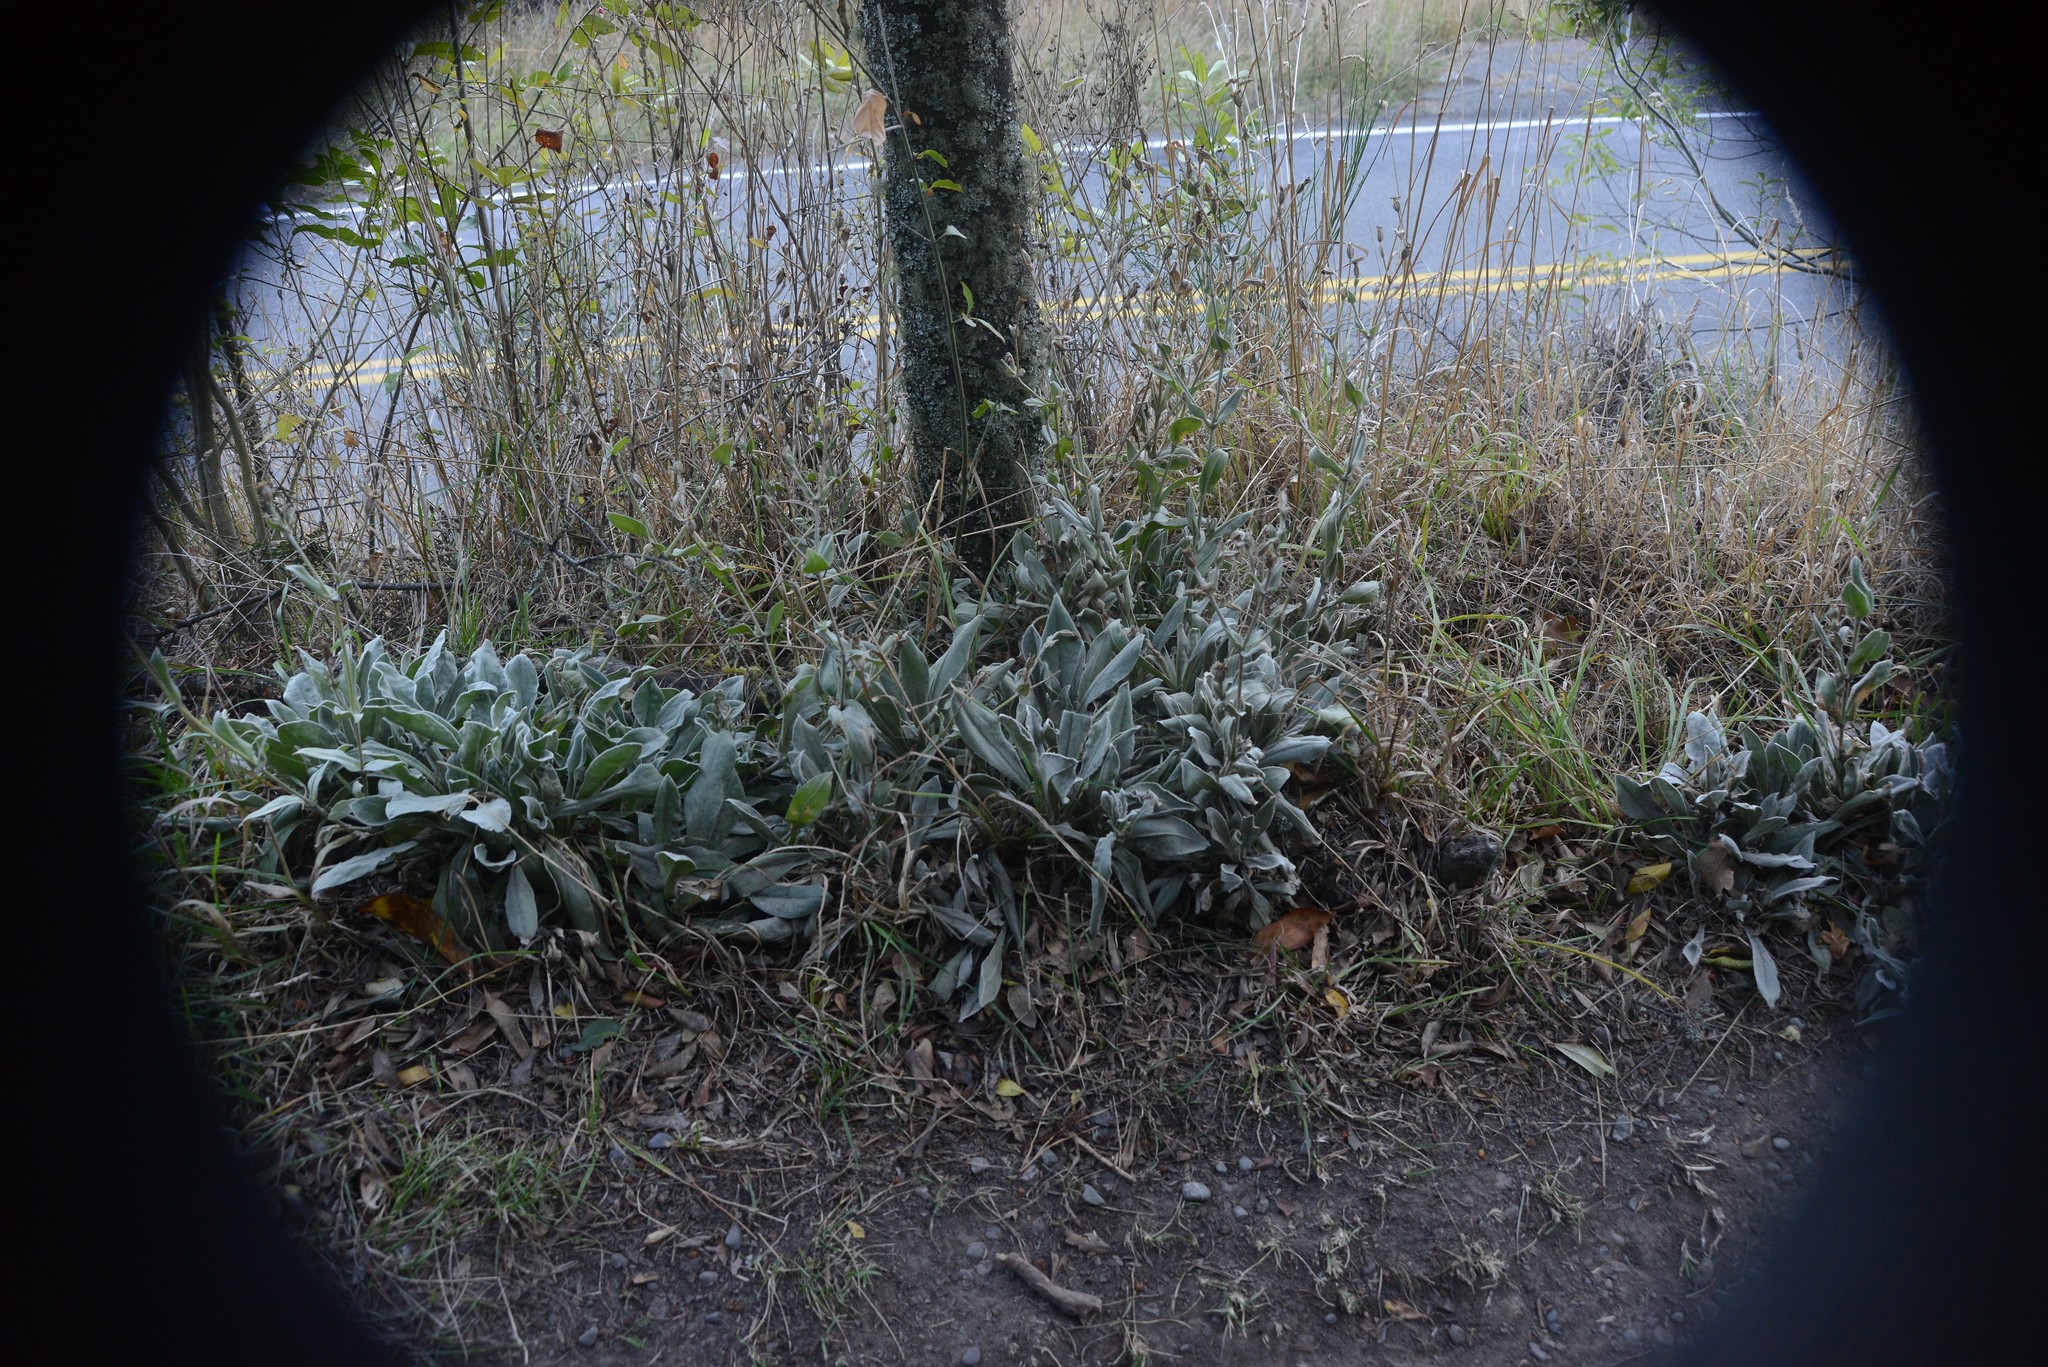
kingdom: Plantae
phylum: Tracheophyta
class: Magnoliopsida
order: Caryophyllales
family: Caryophyllaceae
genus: Silene
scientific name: Silene coronaria
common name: Rose campion
